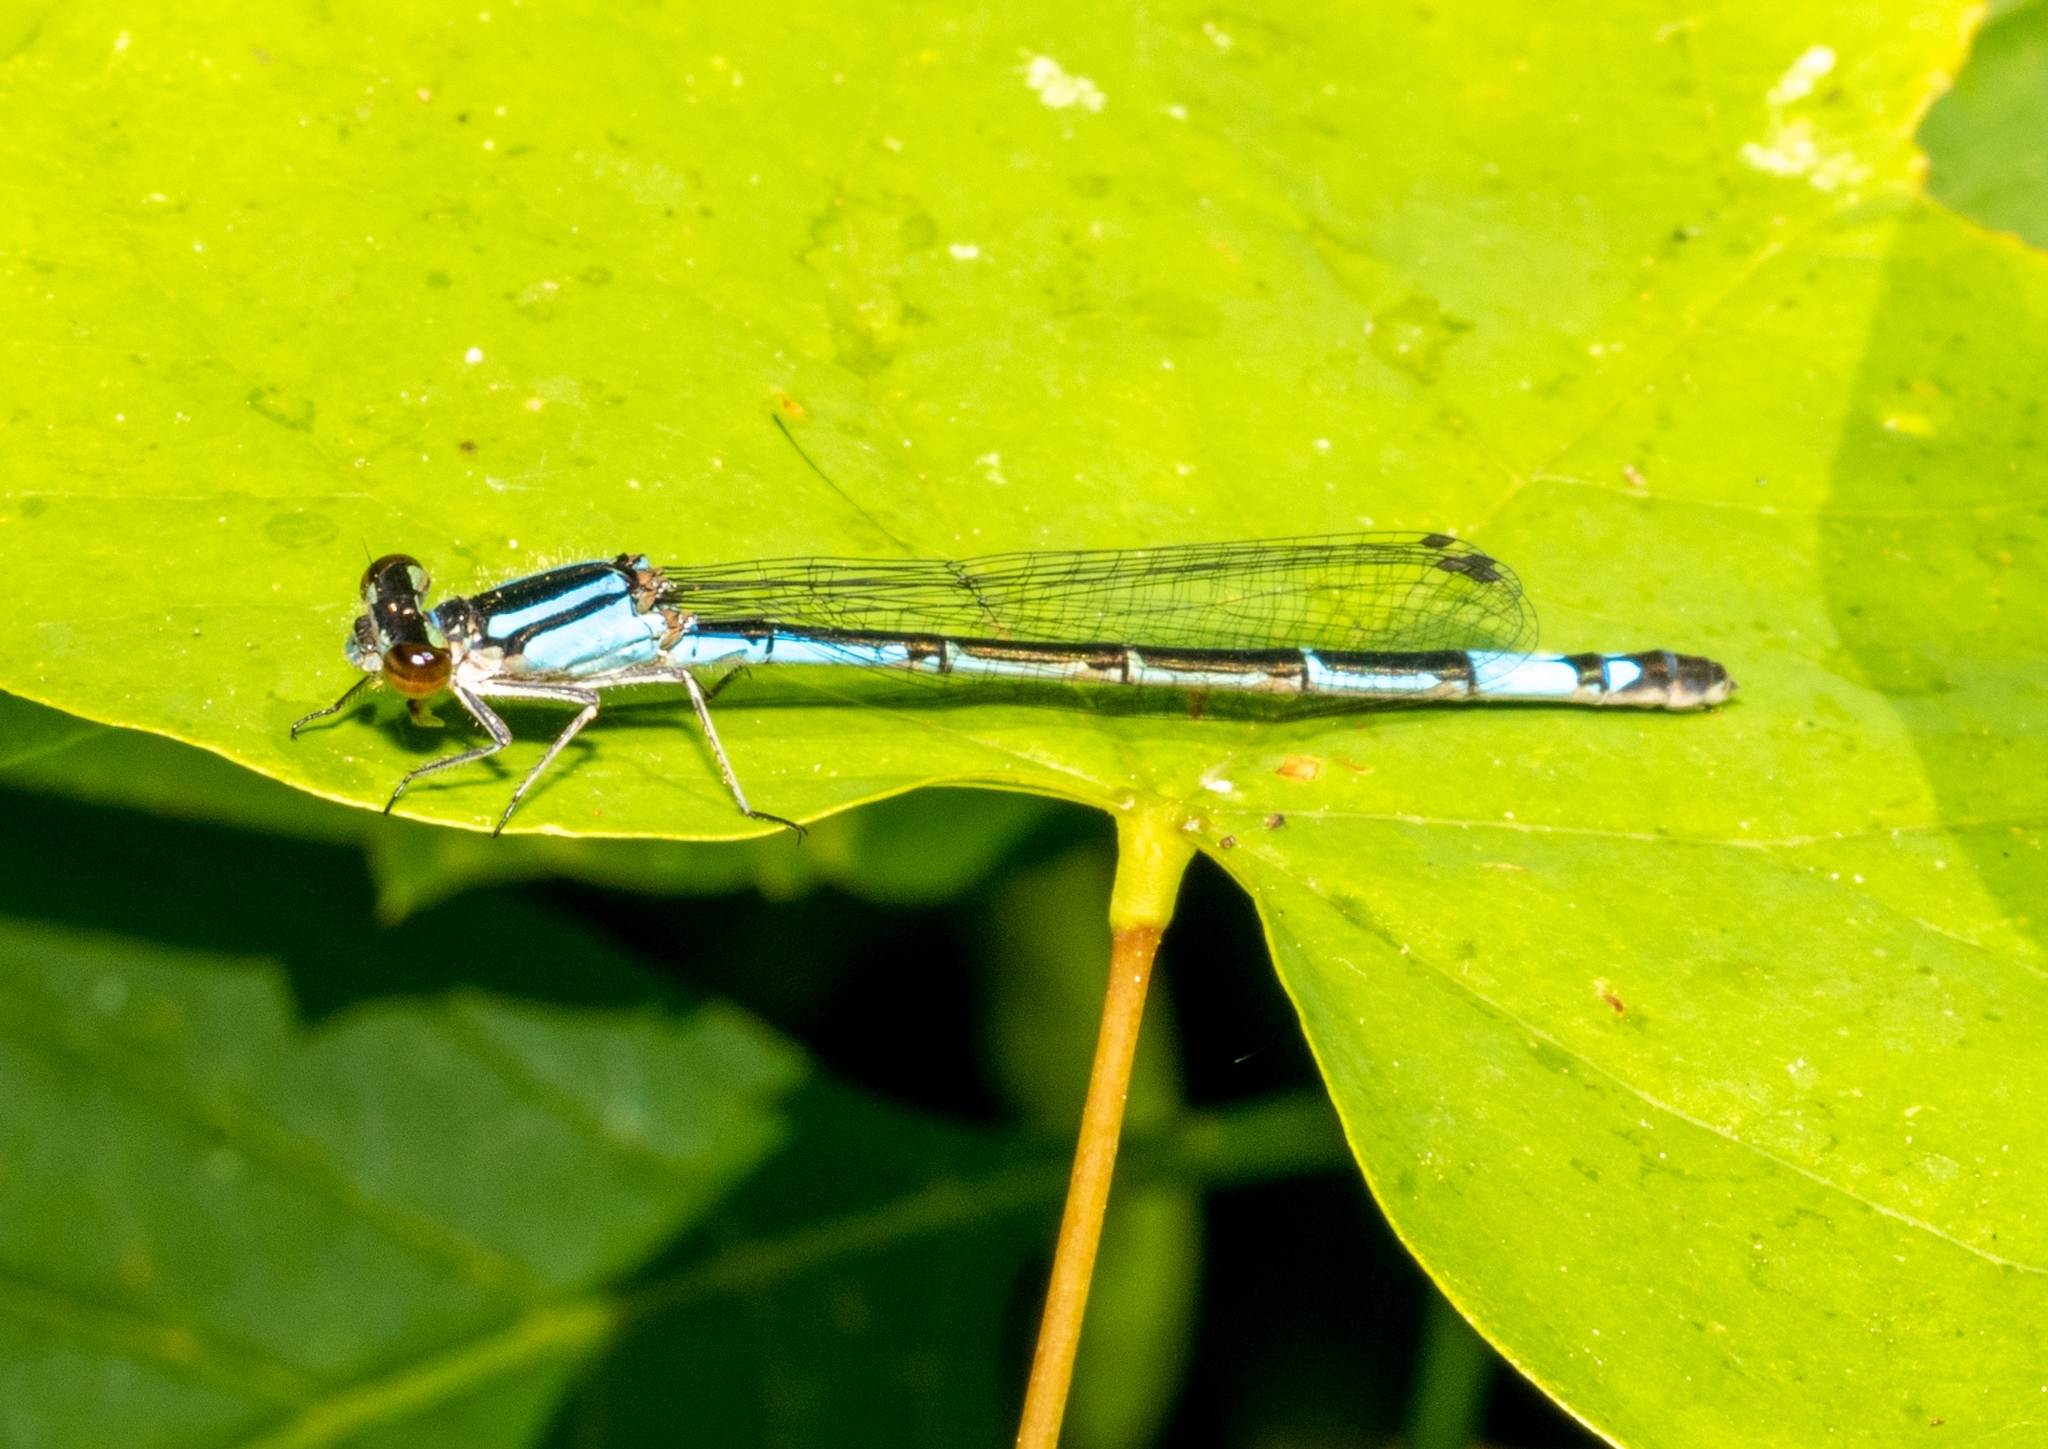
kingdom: Animalia
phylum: Arthropoda
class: Insecta
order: Odonata
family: Coenagrionidae
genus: Enallagma
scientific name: Enallagma aspersum
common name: Azure bluet
